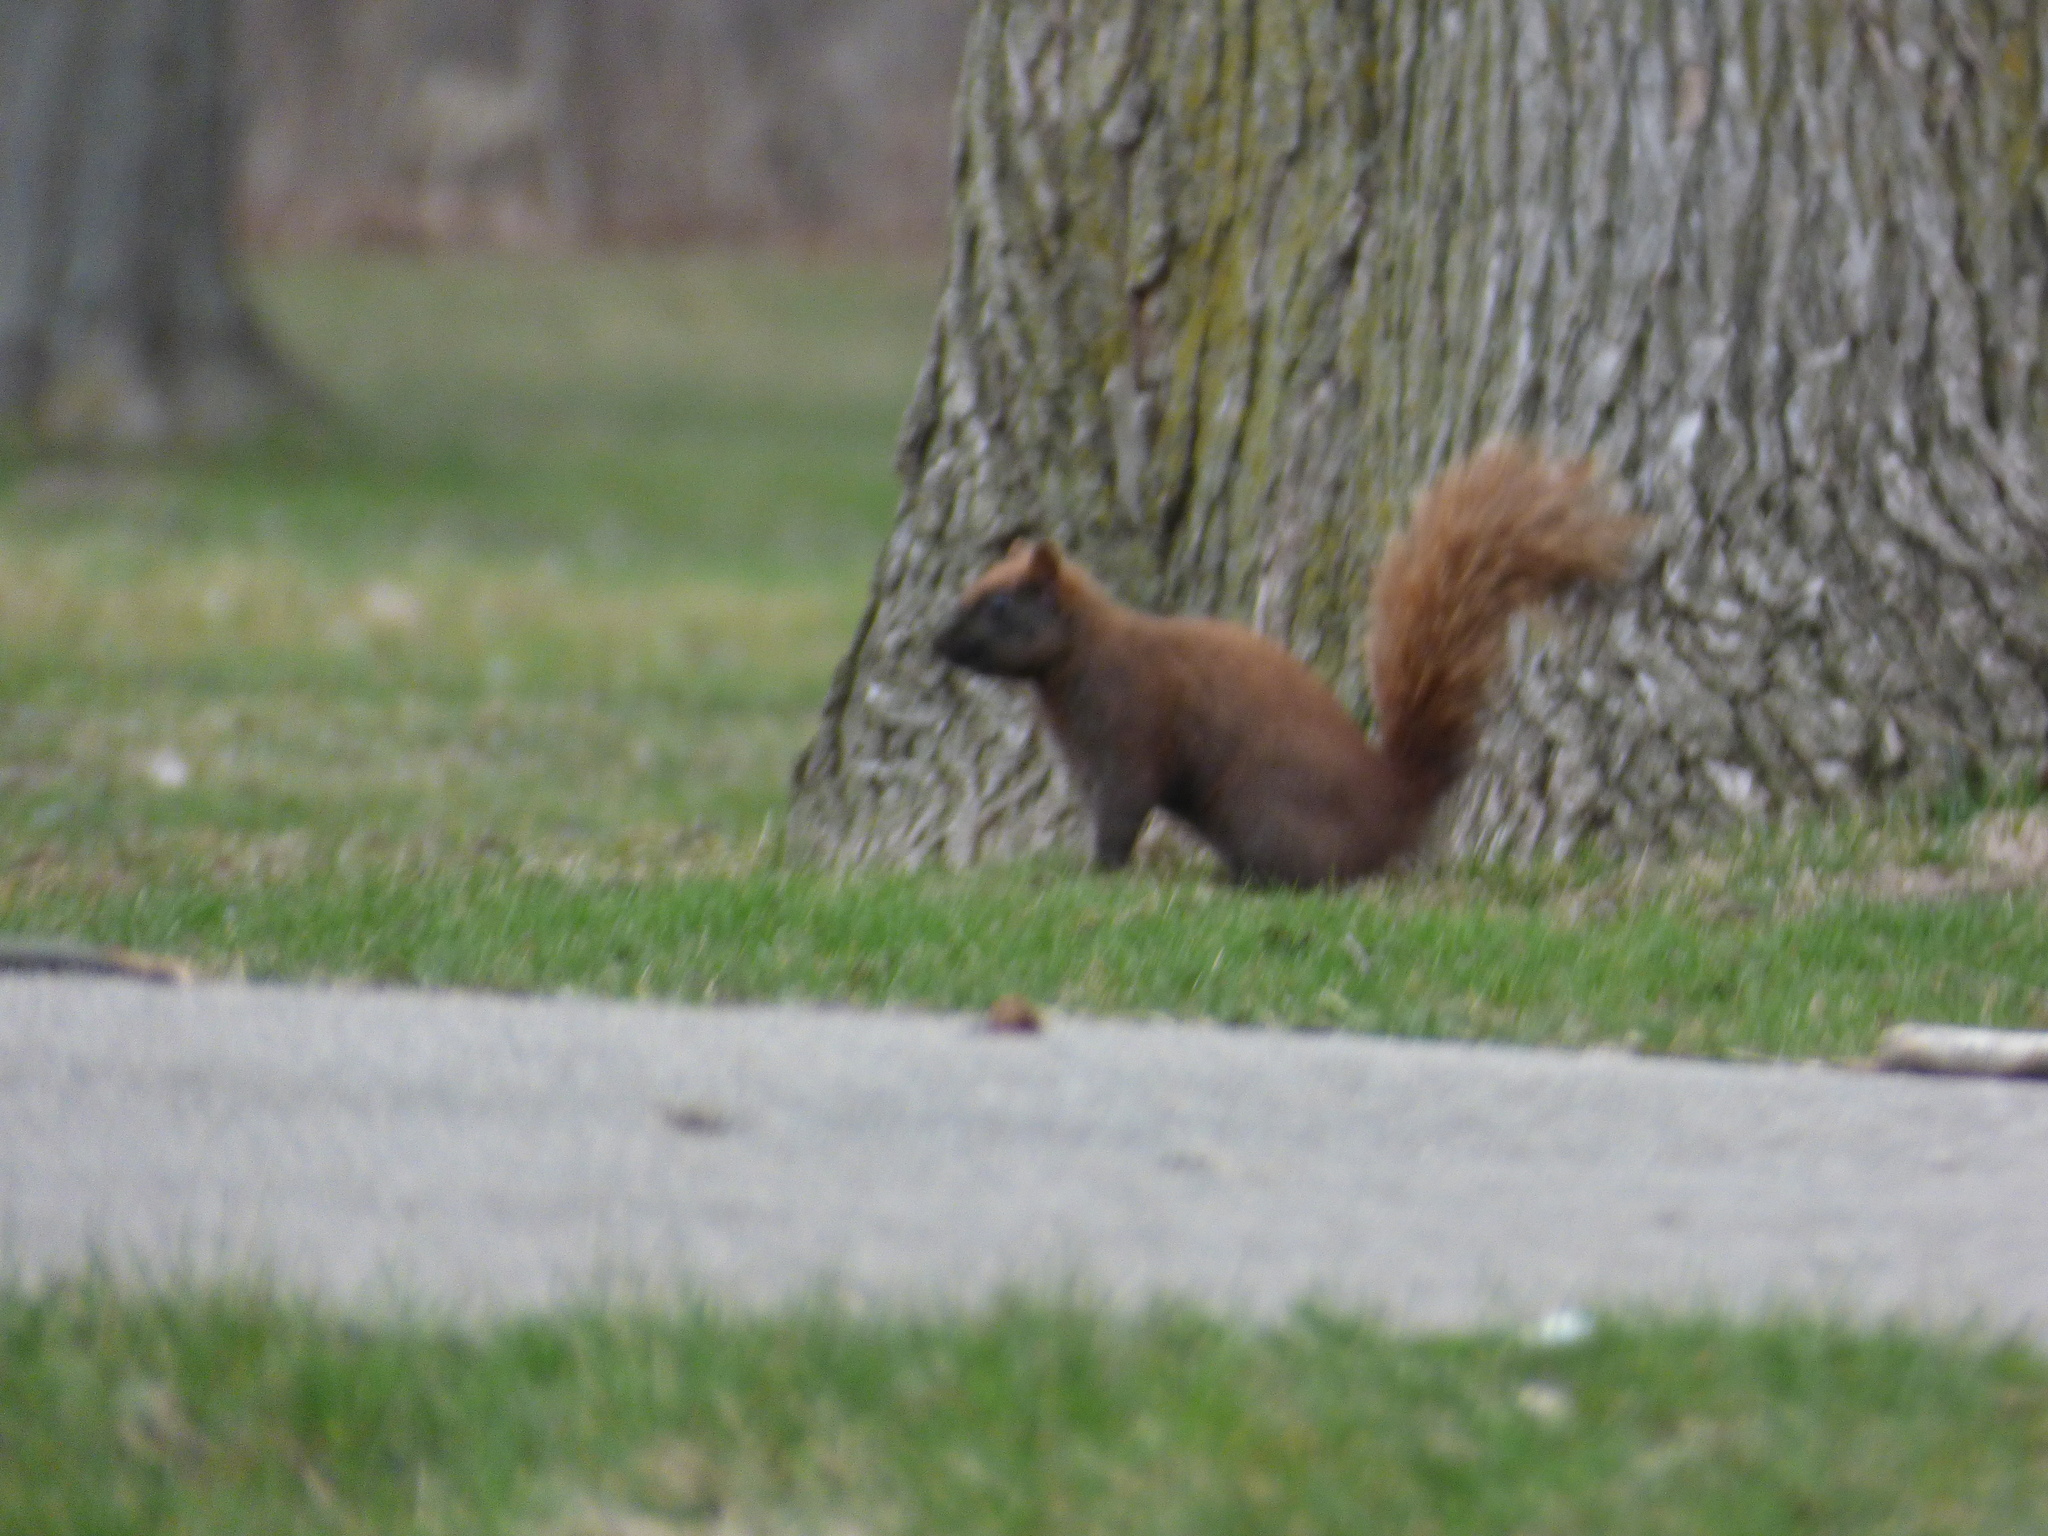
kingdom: Animalia
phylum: Chordata
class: Mammalia
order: Rodentia
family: Sciuridae
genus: Sciurus
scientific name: Sciurus carolinensis
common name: Eastern gray squirrel
